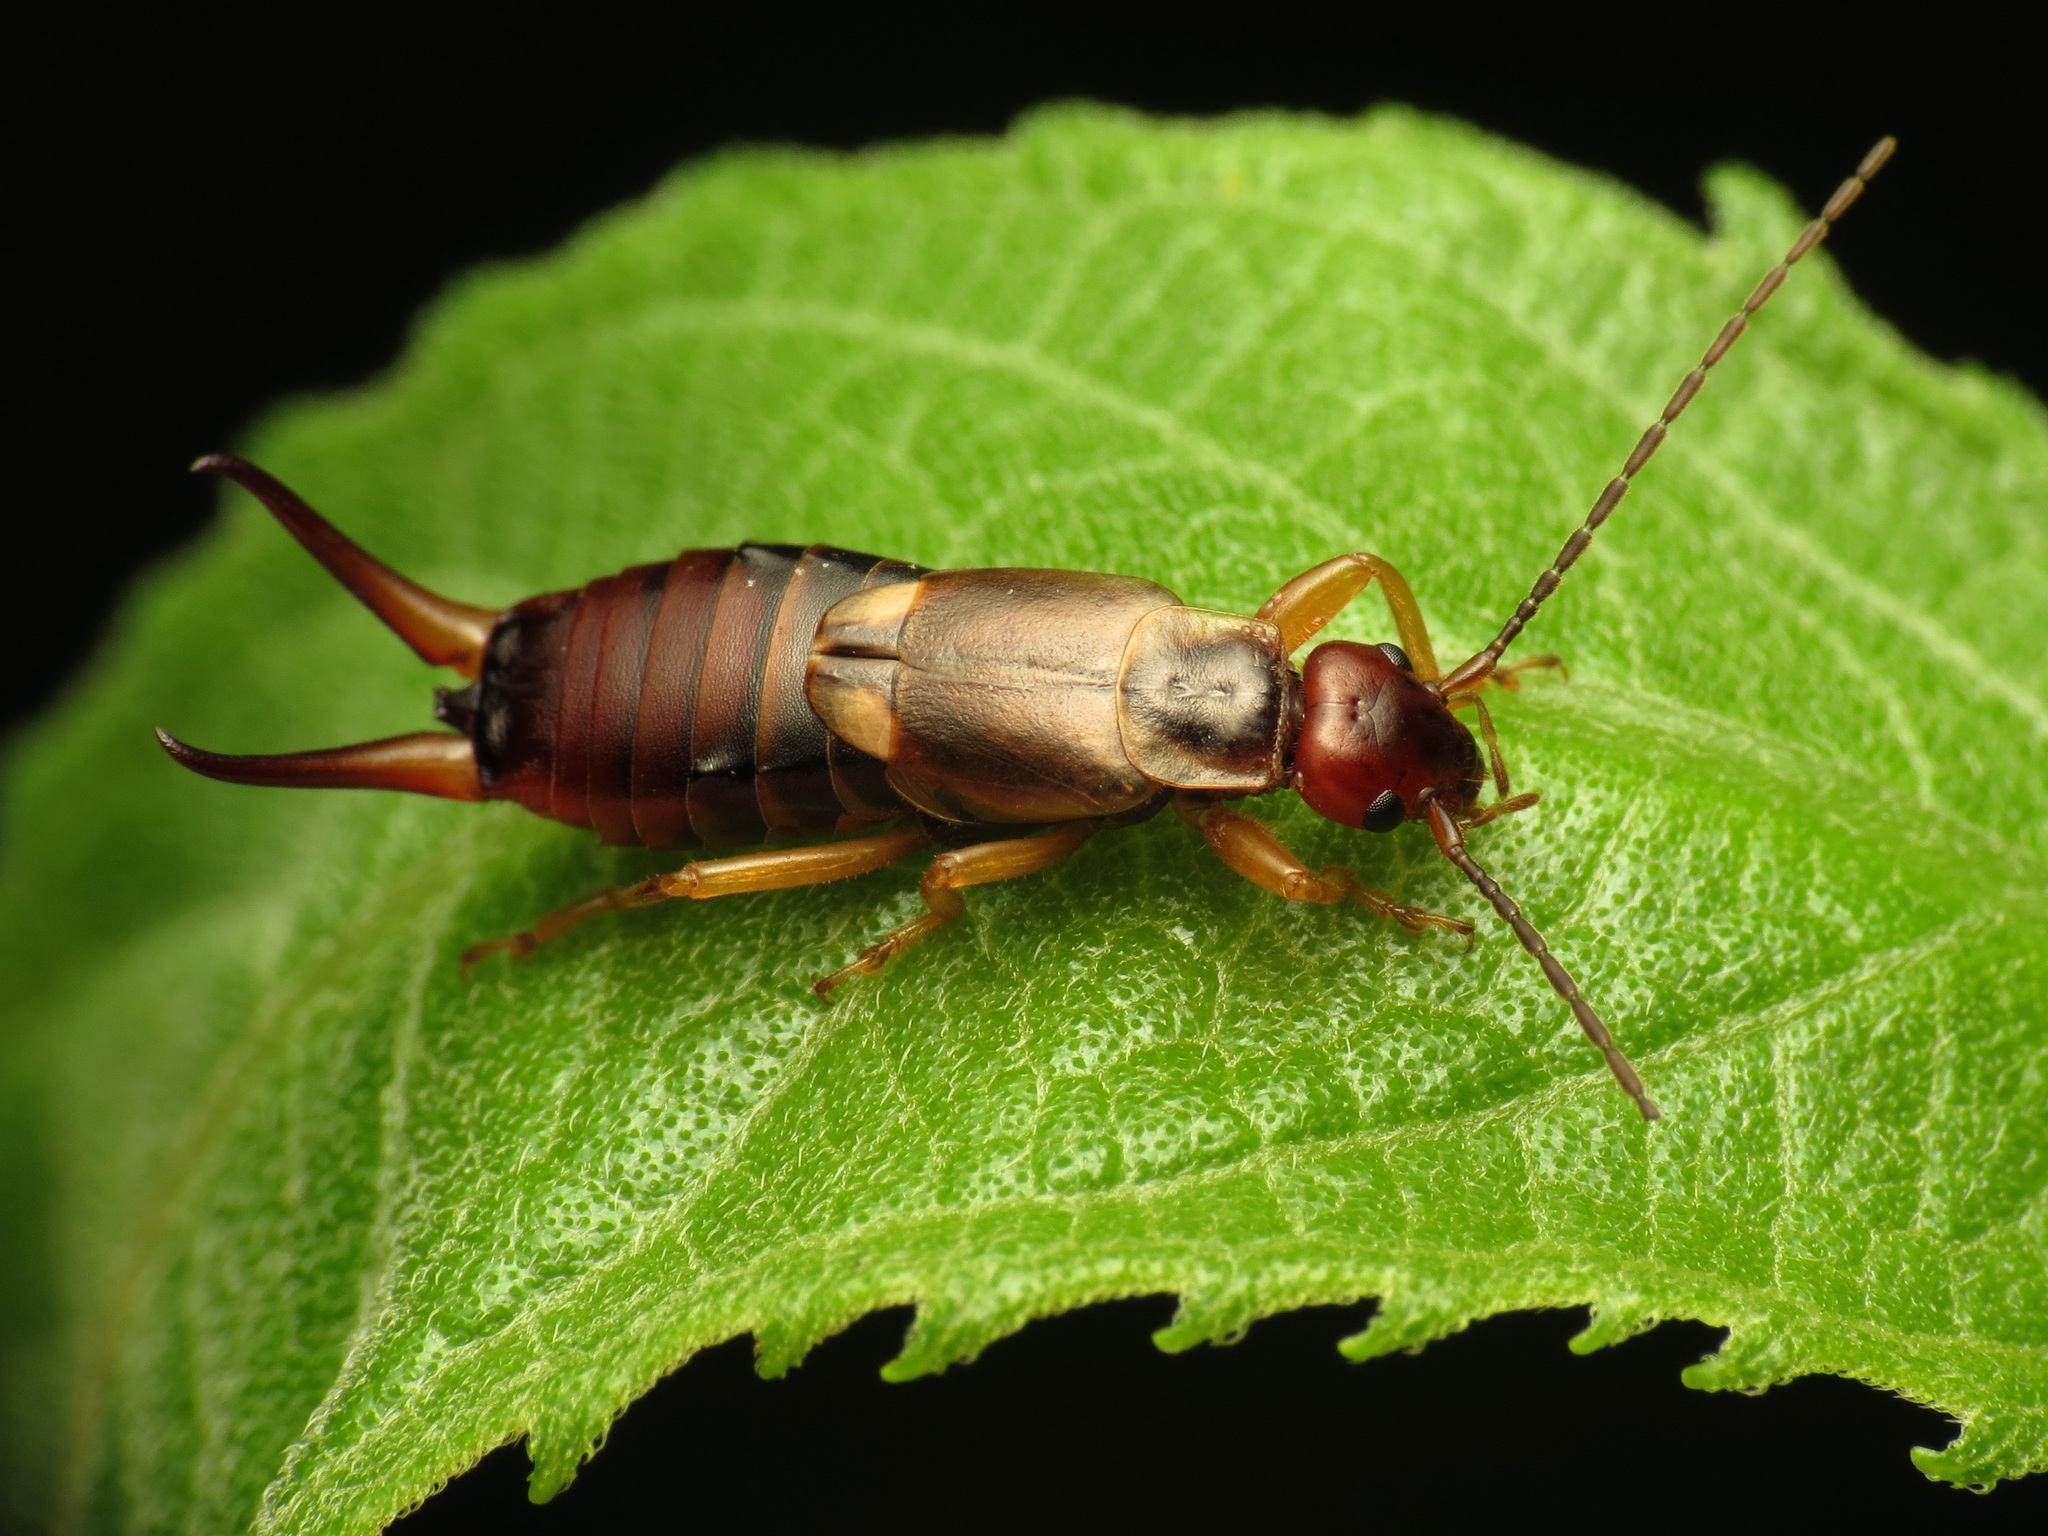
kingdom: Animalia
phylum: Arthropoda
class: Insecta
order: Dermaptera
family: Forficulidae
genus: Forficula
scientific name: Forficula
